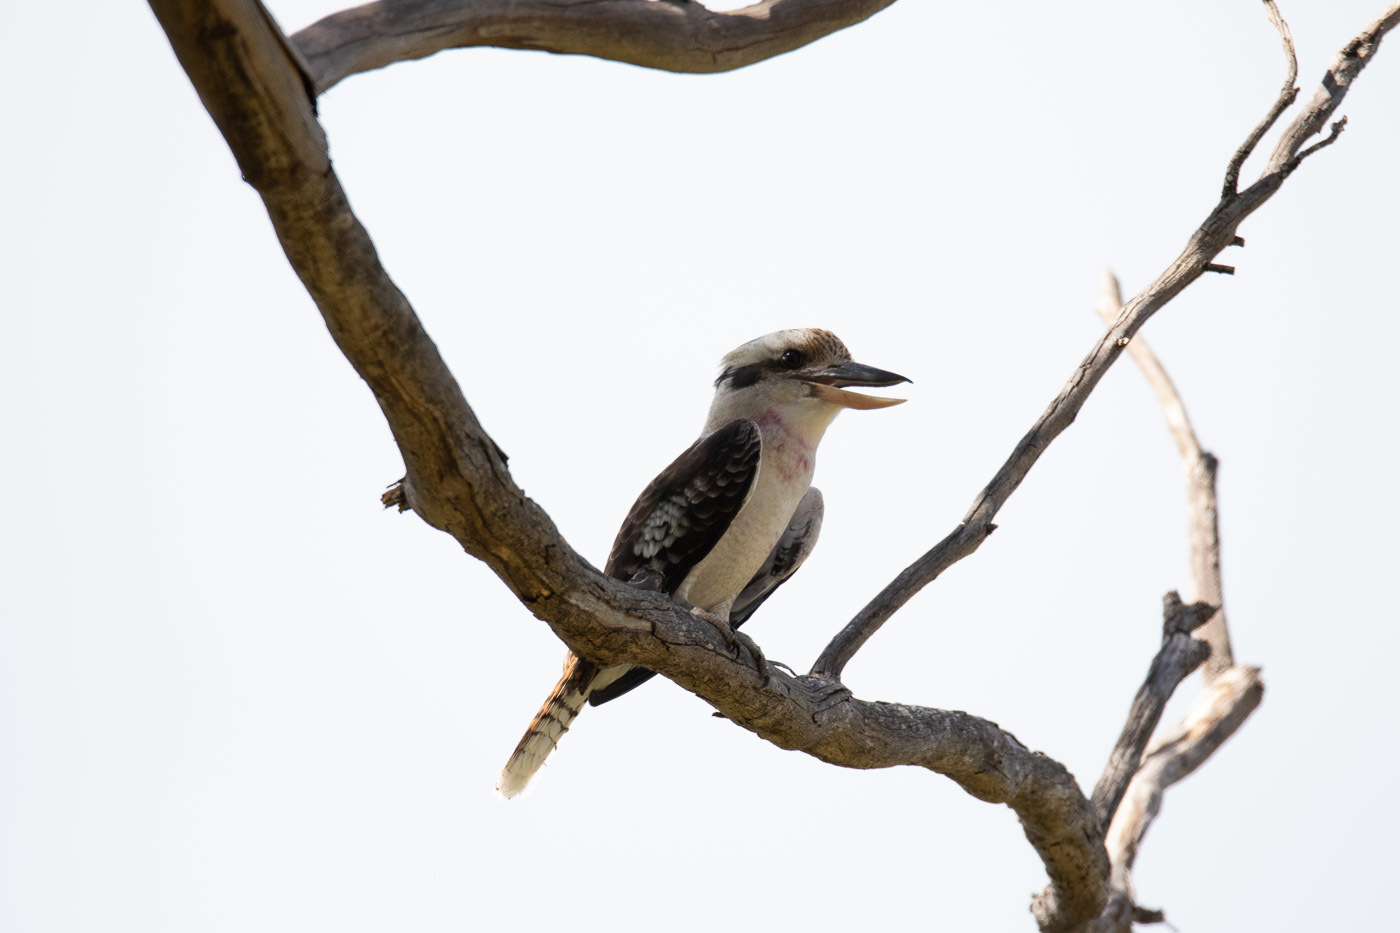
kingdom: Animalia
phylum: Chordata
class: Aves
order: Coraciiformes
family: Alcedinidae
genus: Dacelo
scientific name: Dacelo novaeguineae
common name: Laughing kookaburra
